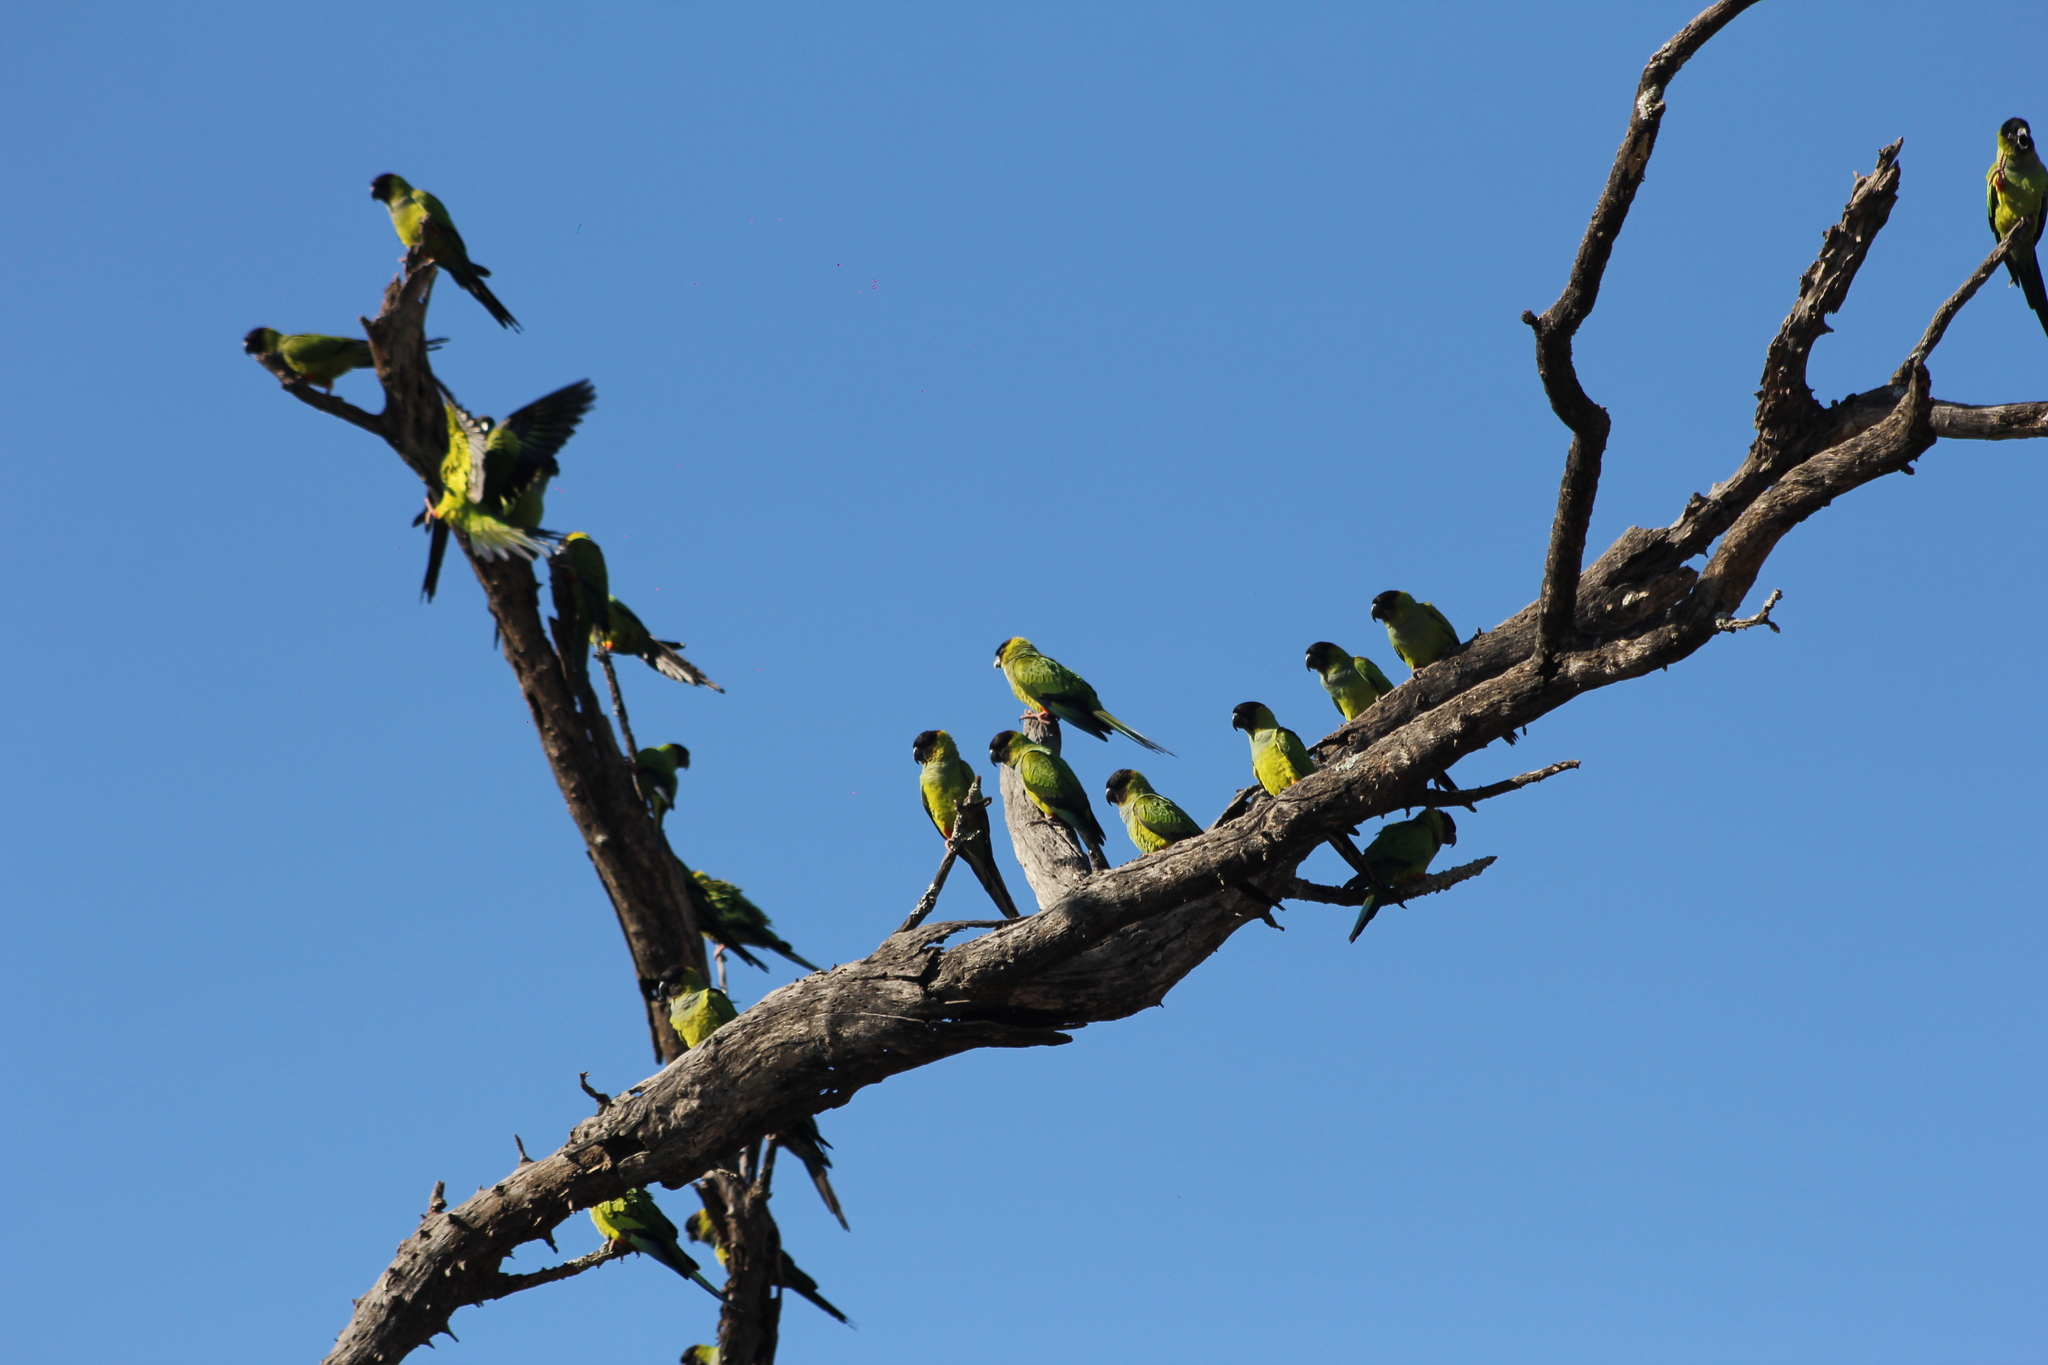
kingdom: Animalia
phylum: Chordata
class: Aves
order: Psittaciformes
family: Psittacidae
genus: Nandayus
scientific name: Nandayus nenday
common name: Nanday parakeet
